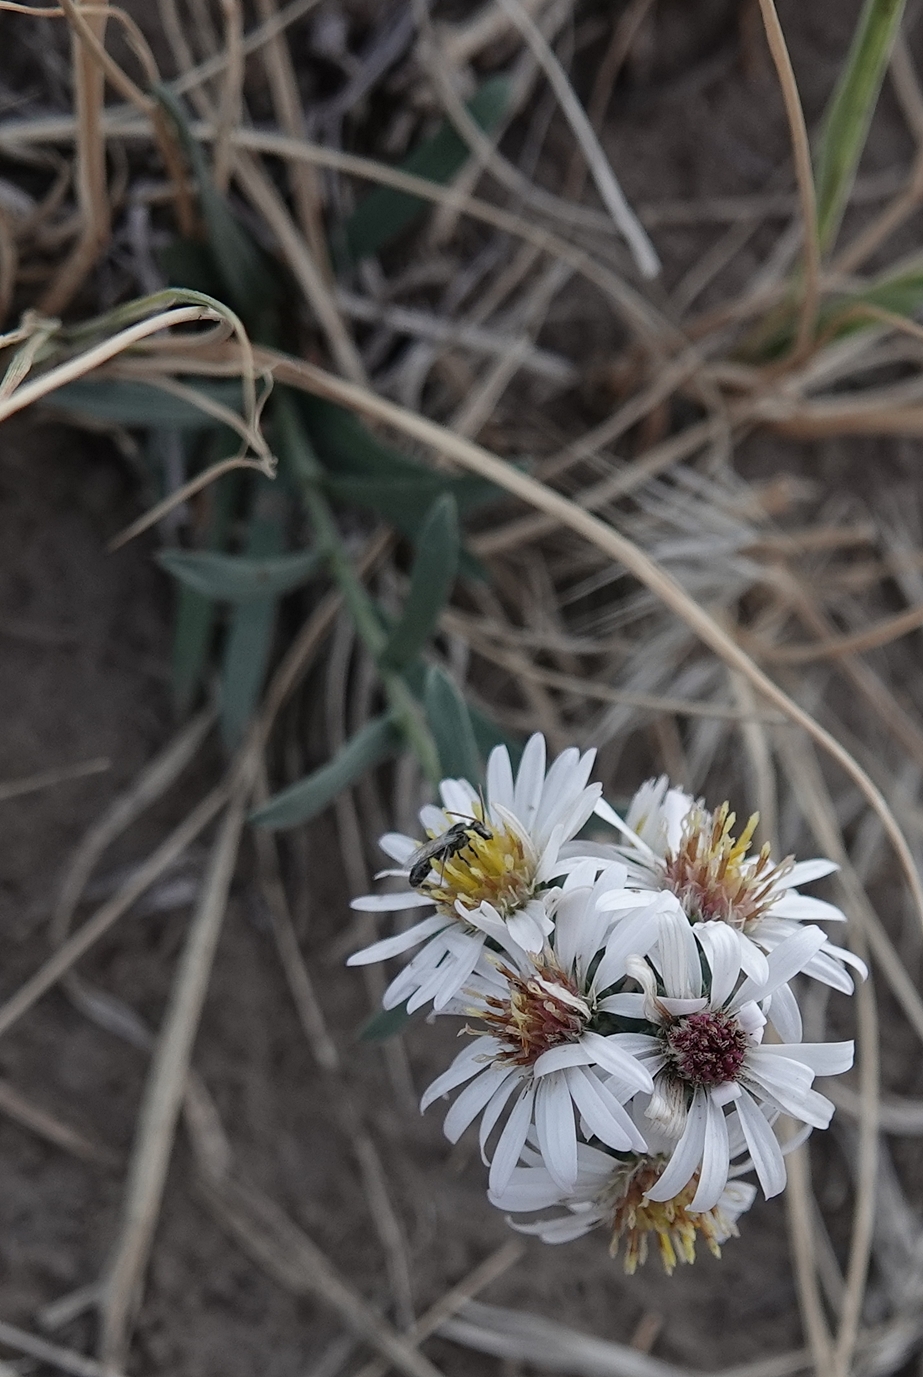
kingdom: Plantae
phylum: Tracheophyta
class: Magnoliopsida
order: Asterales
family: Asteraceae
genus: Symphyotrichum
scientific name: Symphyotrichum lanceolatum
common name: Panicled aster
